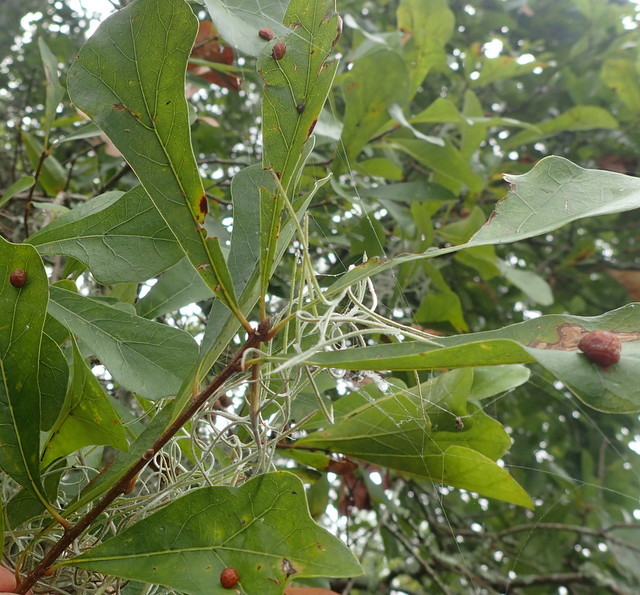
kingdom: Animalia
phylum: Arthropoda
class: Insecta
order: Diptera
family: Cecidomyiidae
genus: Polystepha
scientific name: Polystepha pilulae
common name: Oak leaf gall midge
